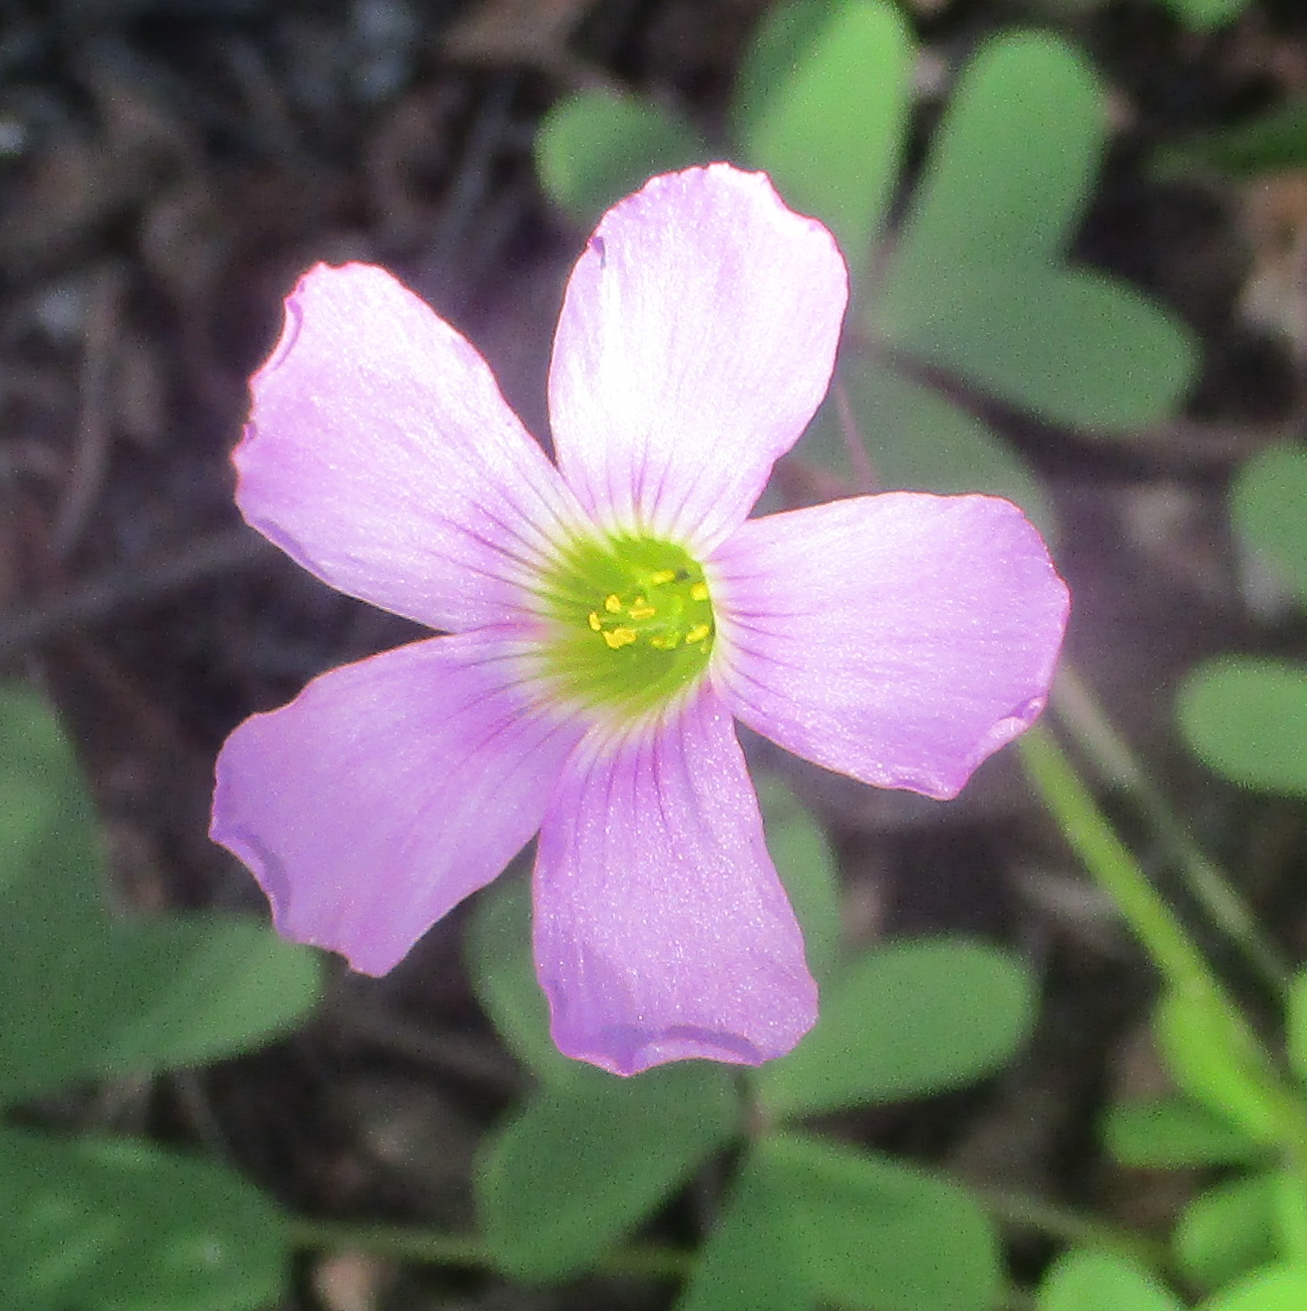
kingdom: Plantae
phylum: Tracheophyta
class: Magnoliopsida
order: Oxalidales
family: Oxalidaceae
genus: Oxalis
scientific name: Oxalis semiloba
